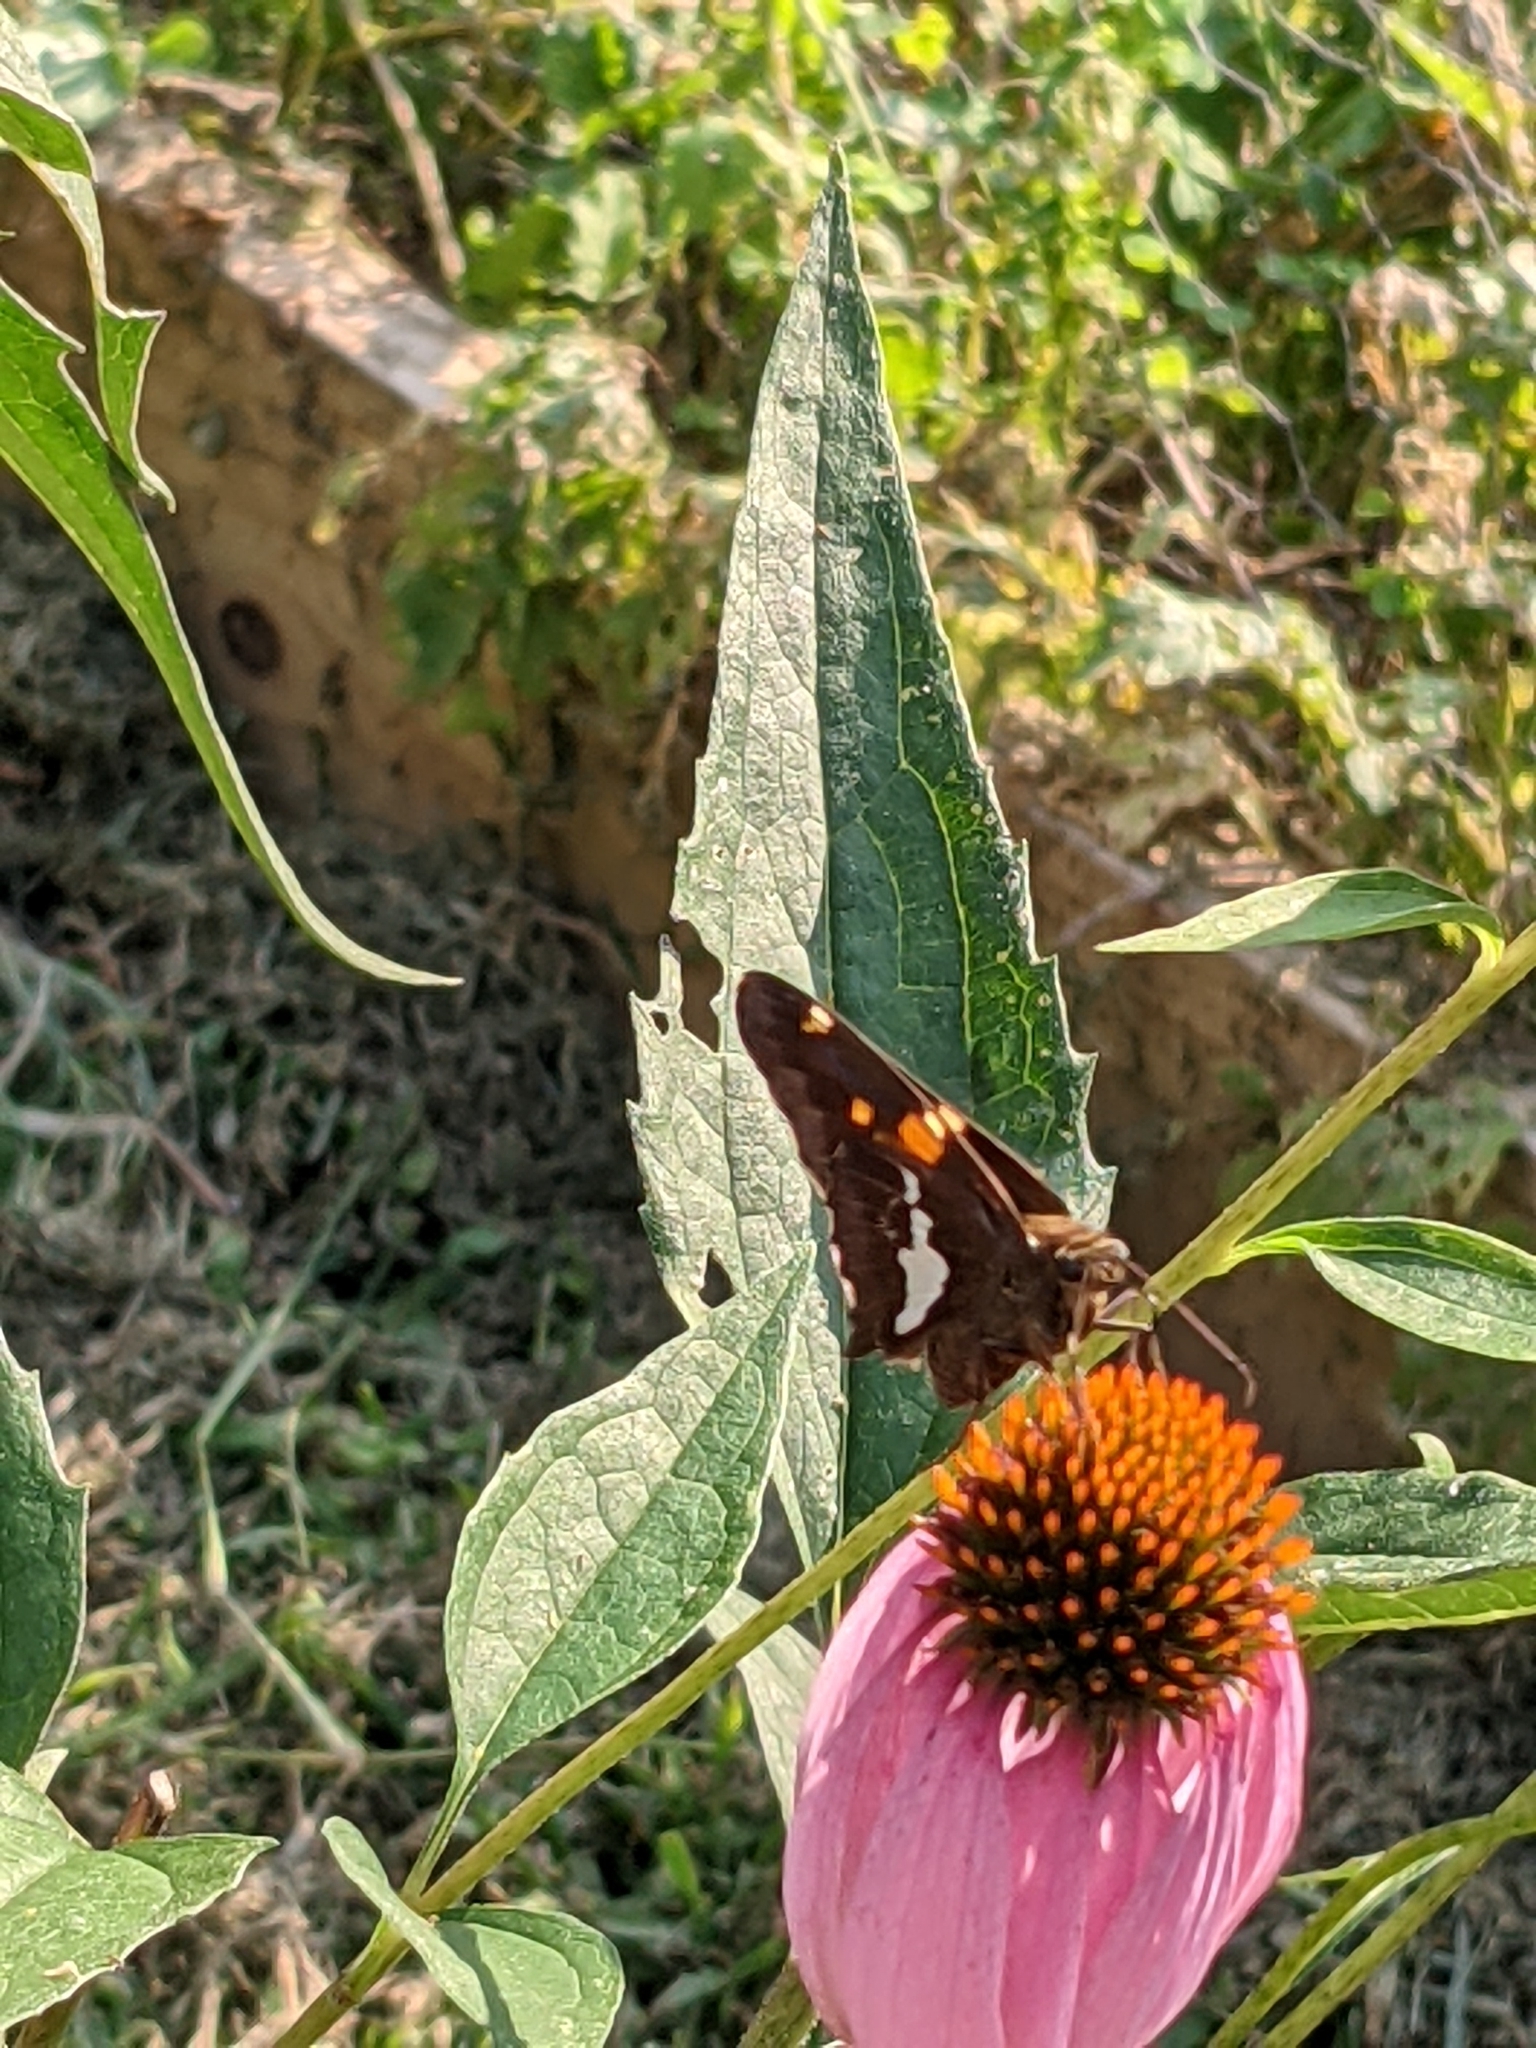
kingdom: Animalia
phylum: Arthropoda
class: Insecta
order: Lepidoptera
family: Hesperiidae
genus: Epargyreus
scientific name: Epargyreus clarus
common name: Silver-spotted skipper
